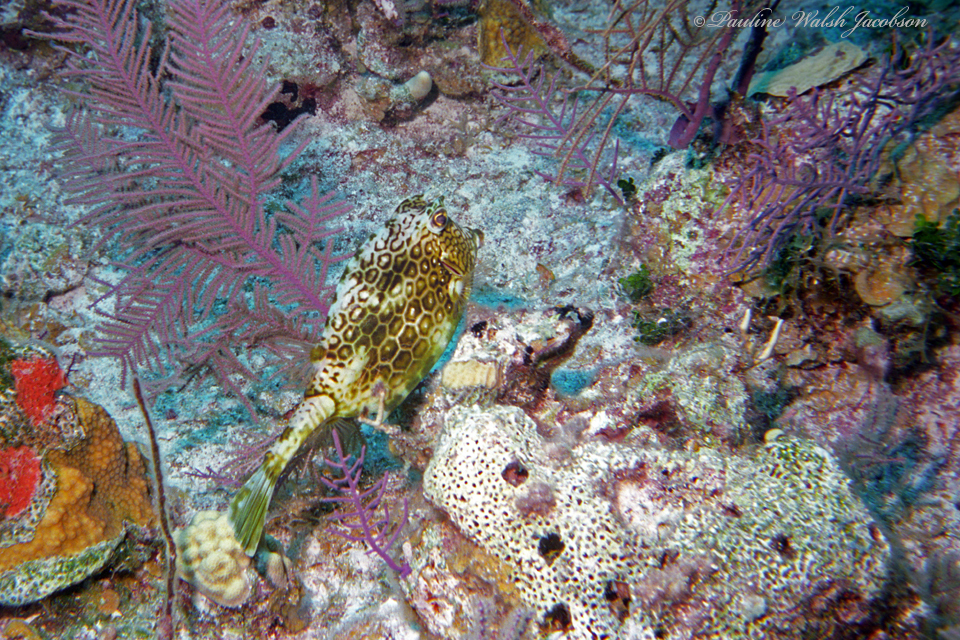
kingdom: Animalia
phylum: Chordata
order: Tetraodontiformes
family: Ostraciidae
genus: Acanthostracion
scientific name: Acanthostracion polygonius
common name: Honeycomb cowfish
